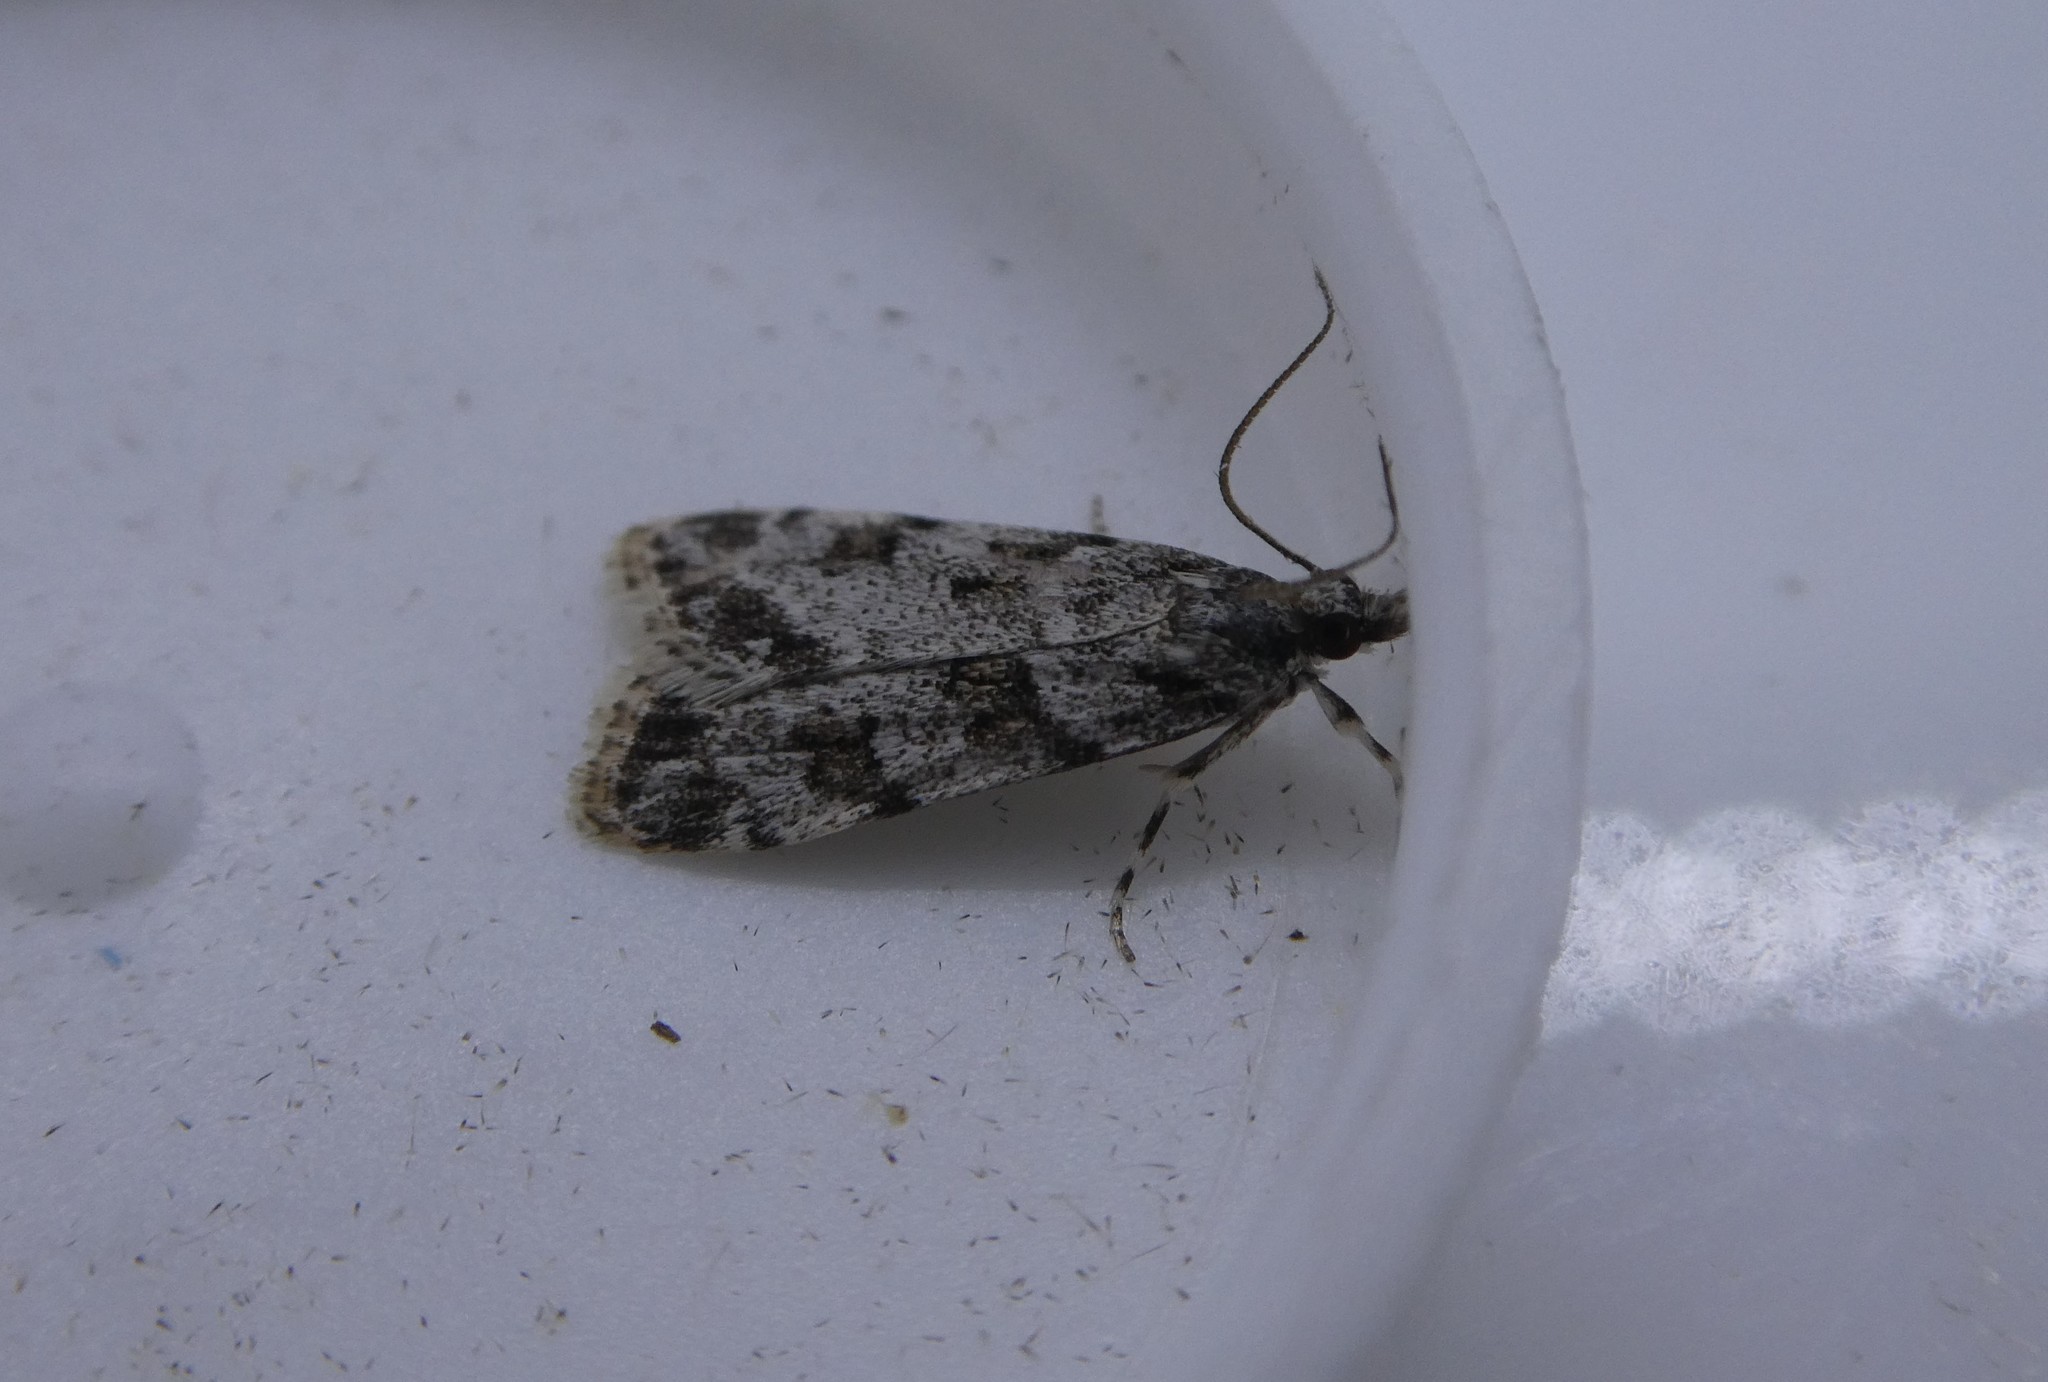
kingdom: Animalia
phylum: Arthropoda
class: Insecta
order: Lepidoptera
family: Crambidae
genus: Scoparia
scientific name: Scoparia biplagialis
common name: Double-striped scoparia moth
